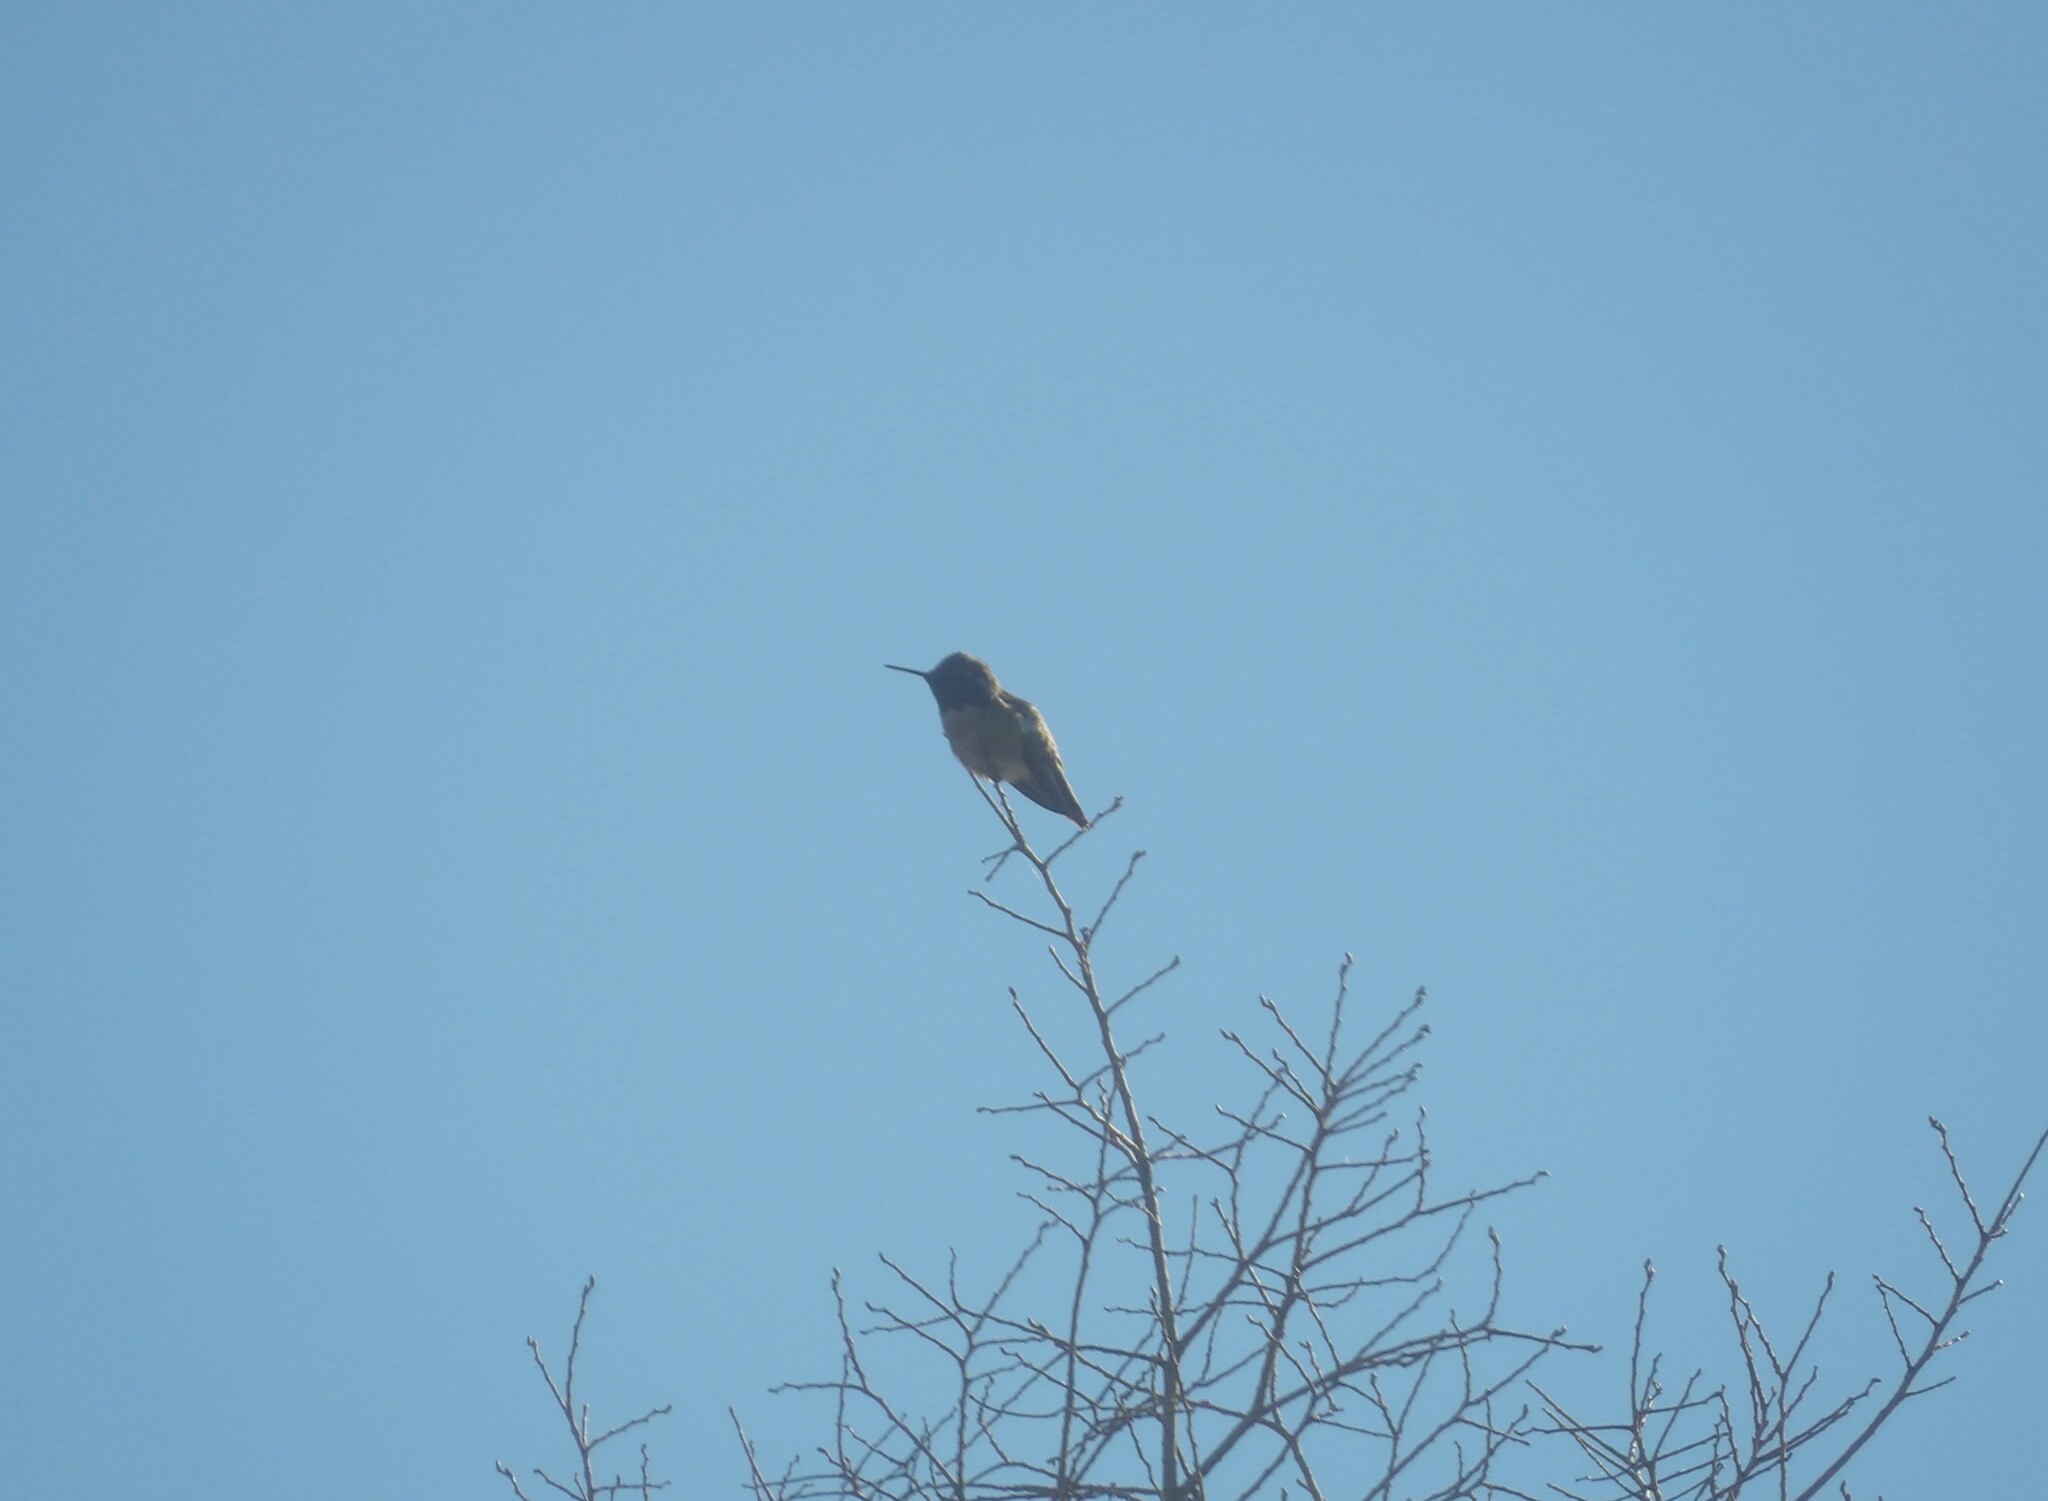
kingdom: Animalia
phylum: Chordata
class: Aves
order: Apodiformes
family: Trochilidae
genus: Calypte
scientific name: Calypte anna
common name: Anna's hummingbird
